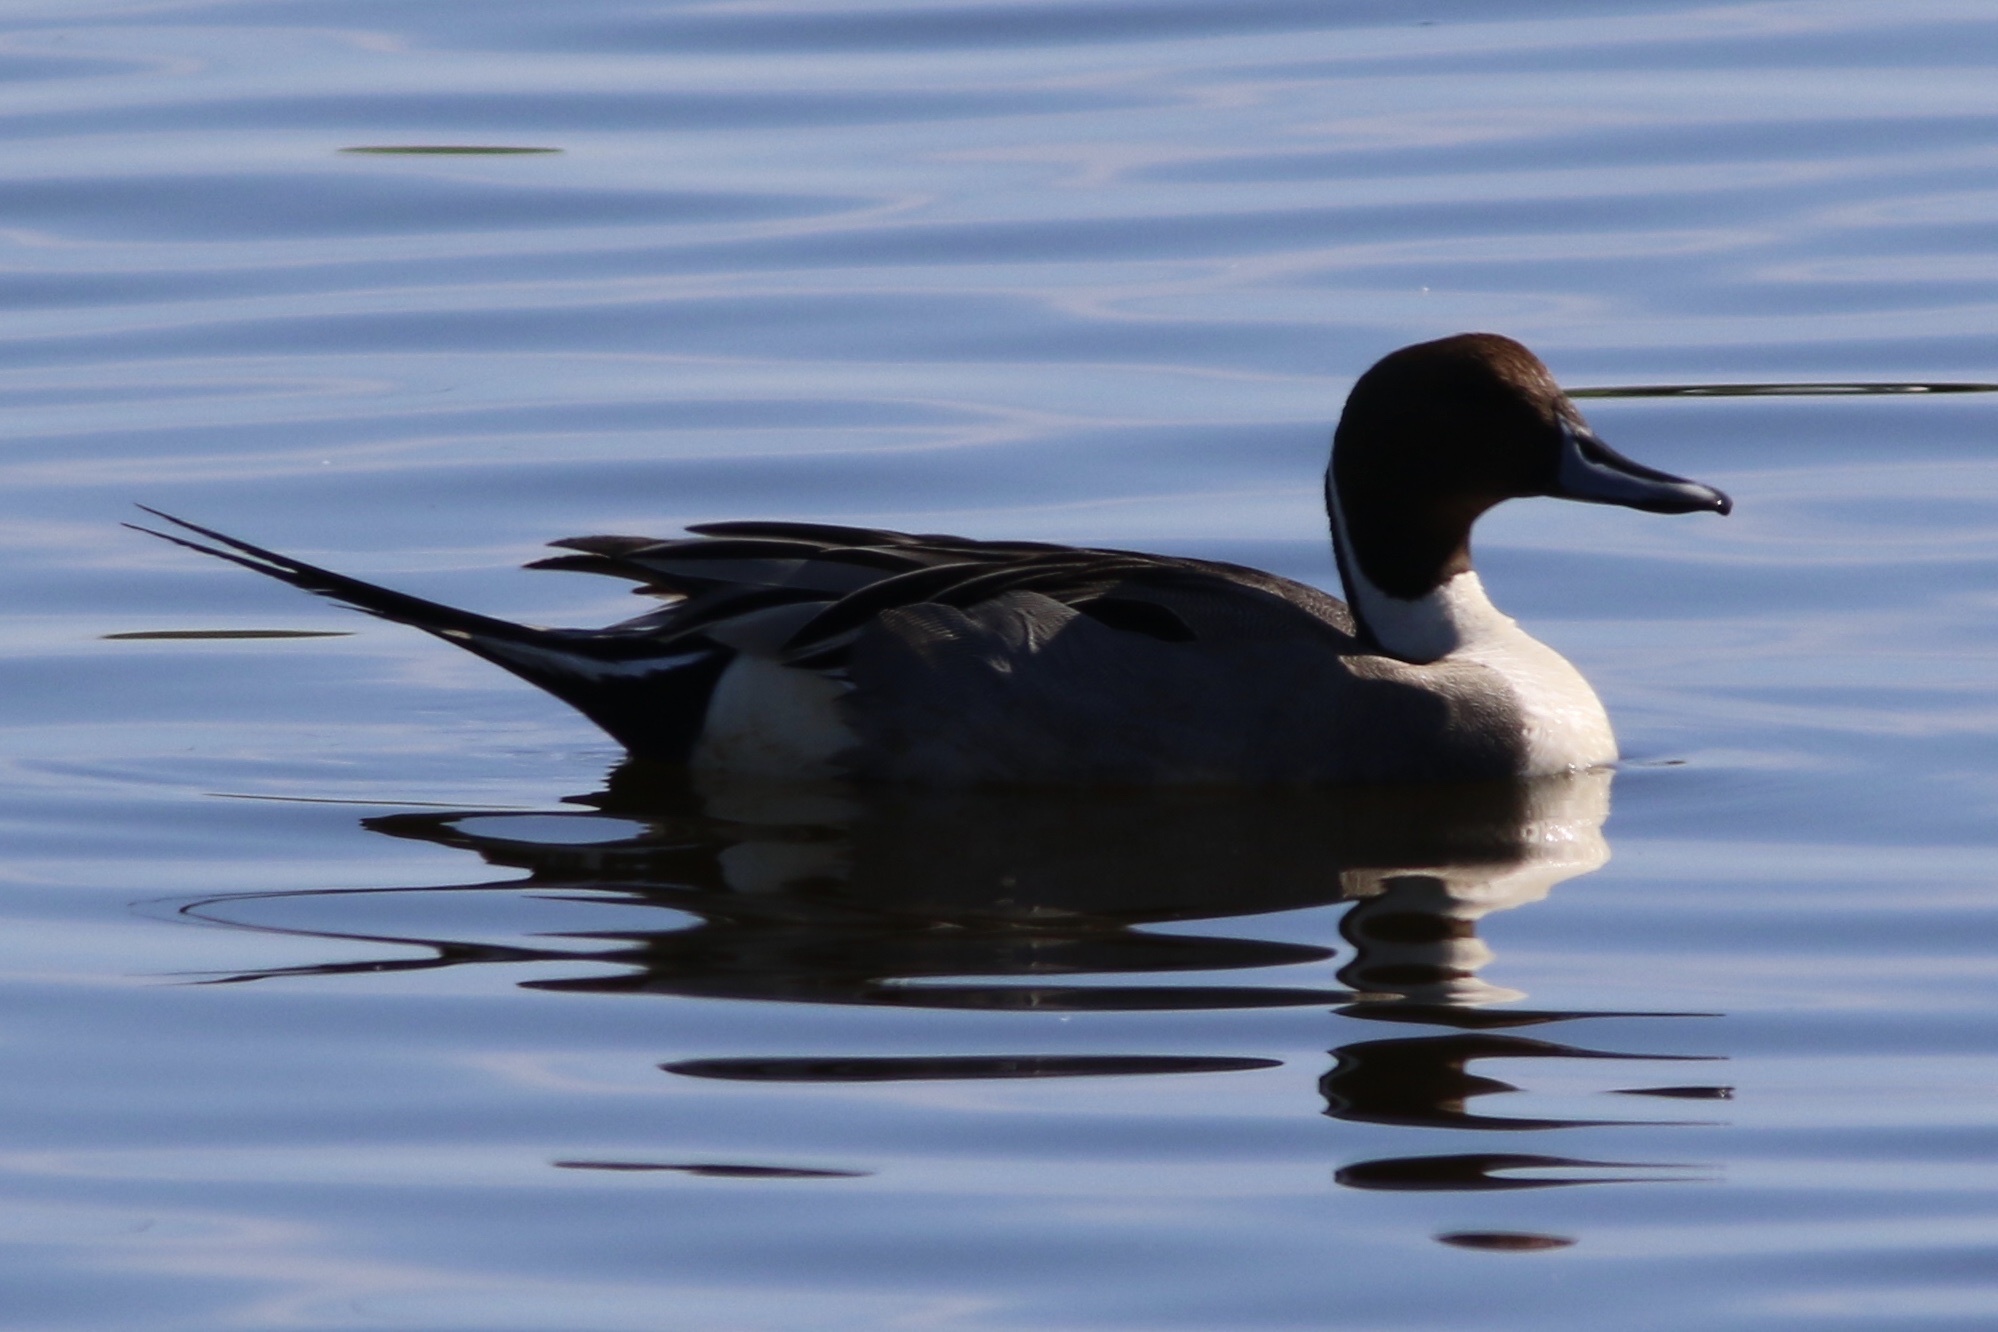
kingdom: Animalia
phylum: Chordata
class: Aves
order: Anseriformes
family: Anatidae
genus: Anas
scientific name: Anas acuta
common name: Northern pintail
